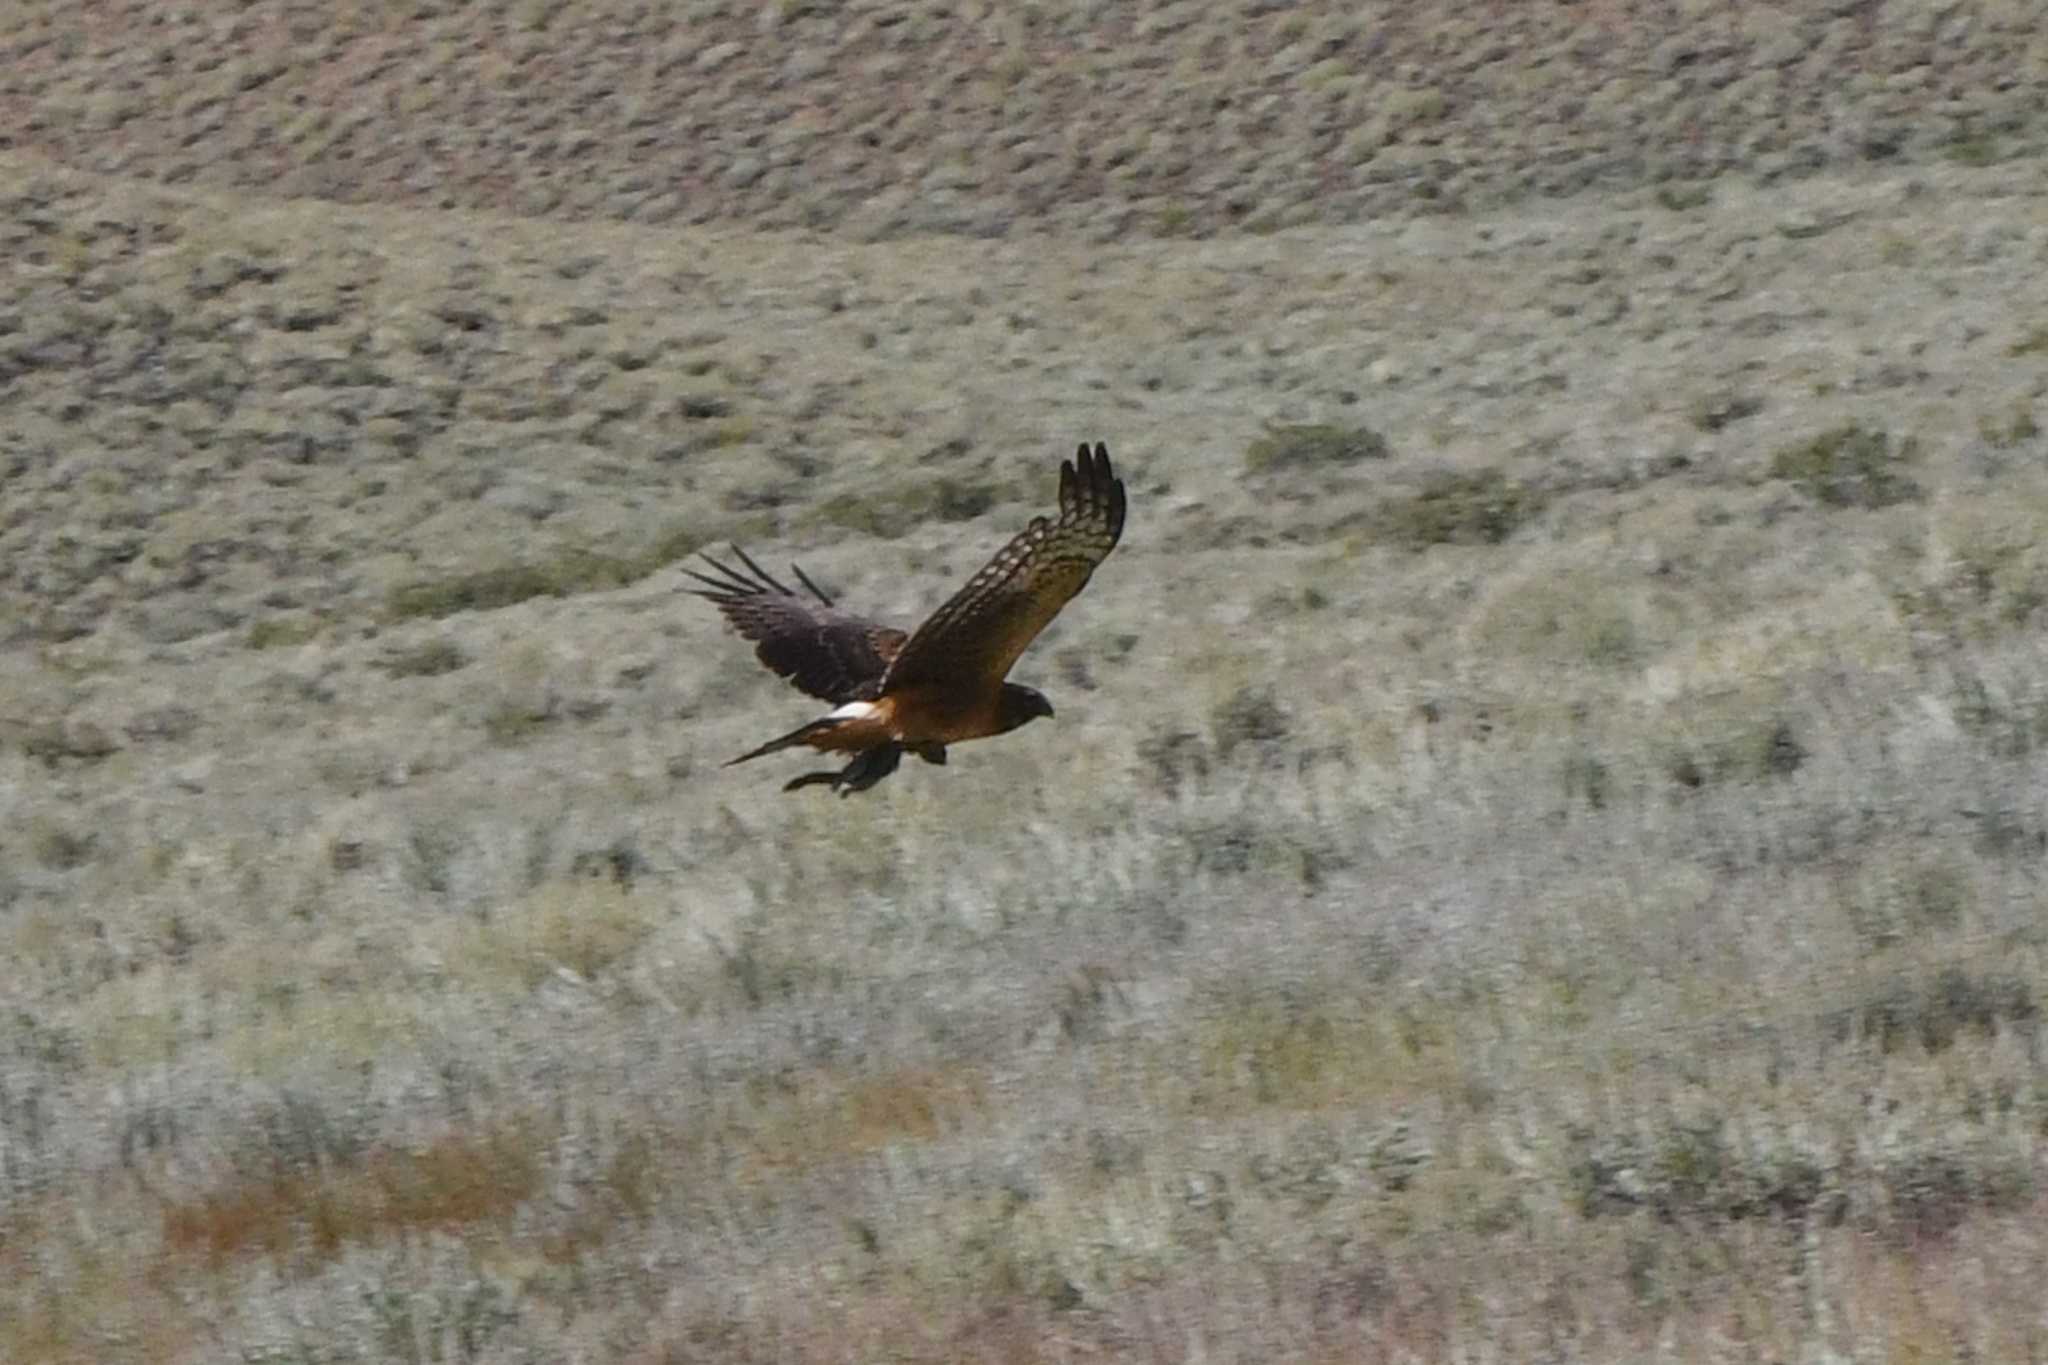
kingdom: Animalia
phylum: Chordata
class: Aves
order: Accipitriformes
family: Accipitridae
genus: Circus
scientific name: Circus cyaneus
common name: Hen harrier
